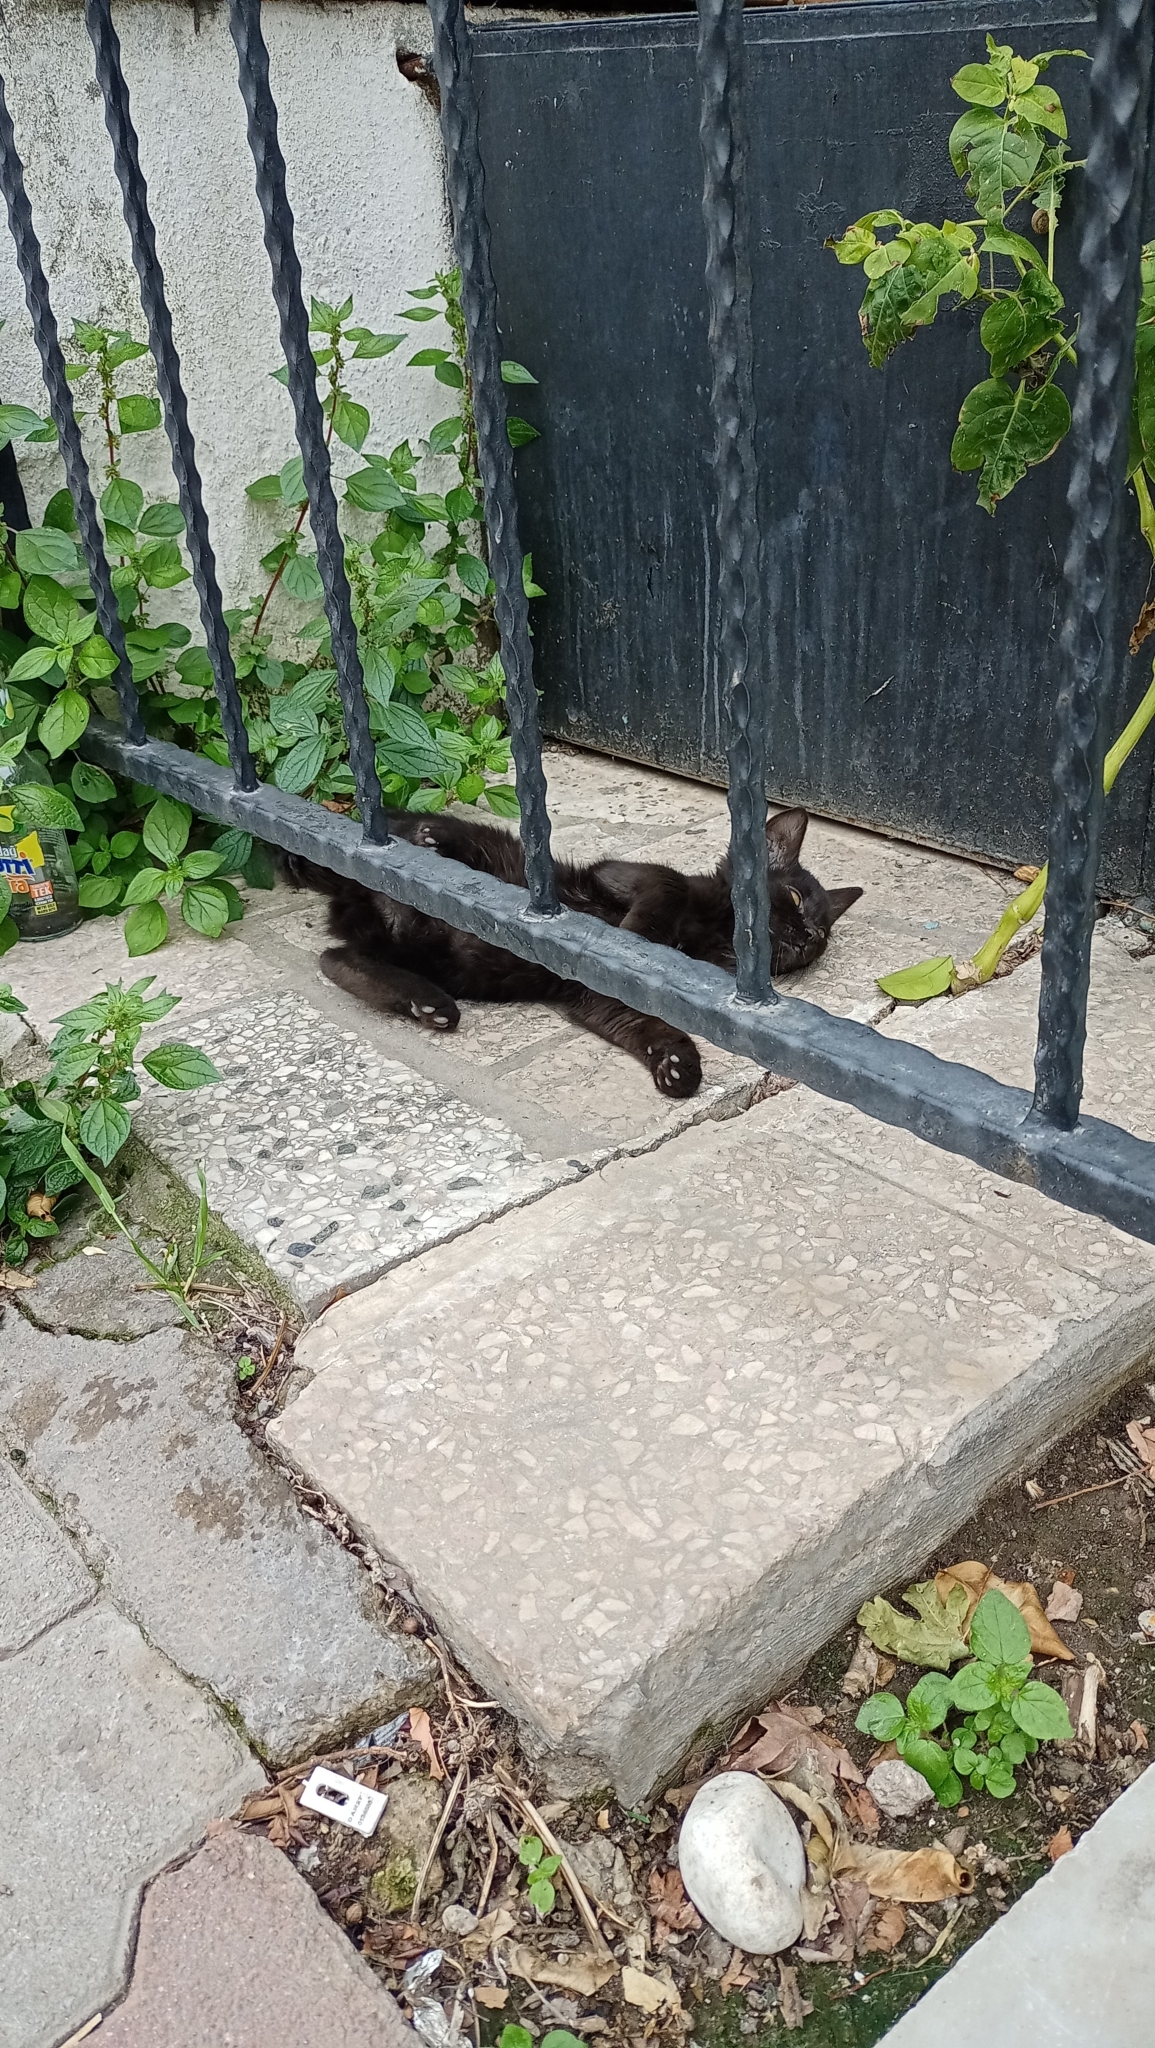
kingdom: Animalia
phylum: Chordata
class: Mammalia
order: Carnivora
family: Felidae
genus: Felis
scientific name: Felis catus
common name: Domestic cat
